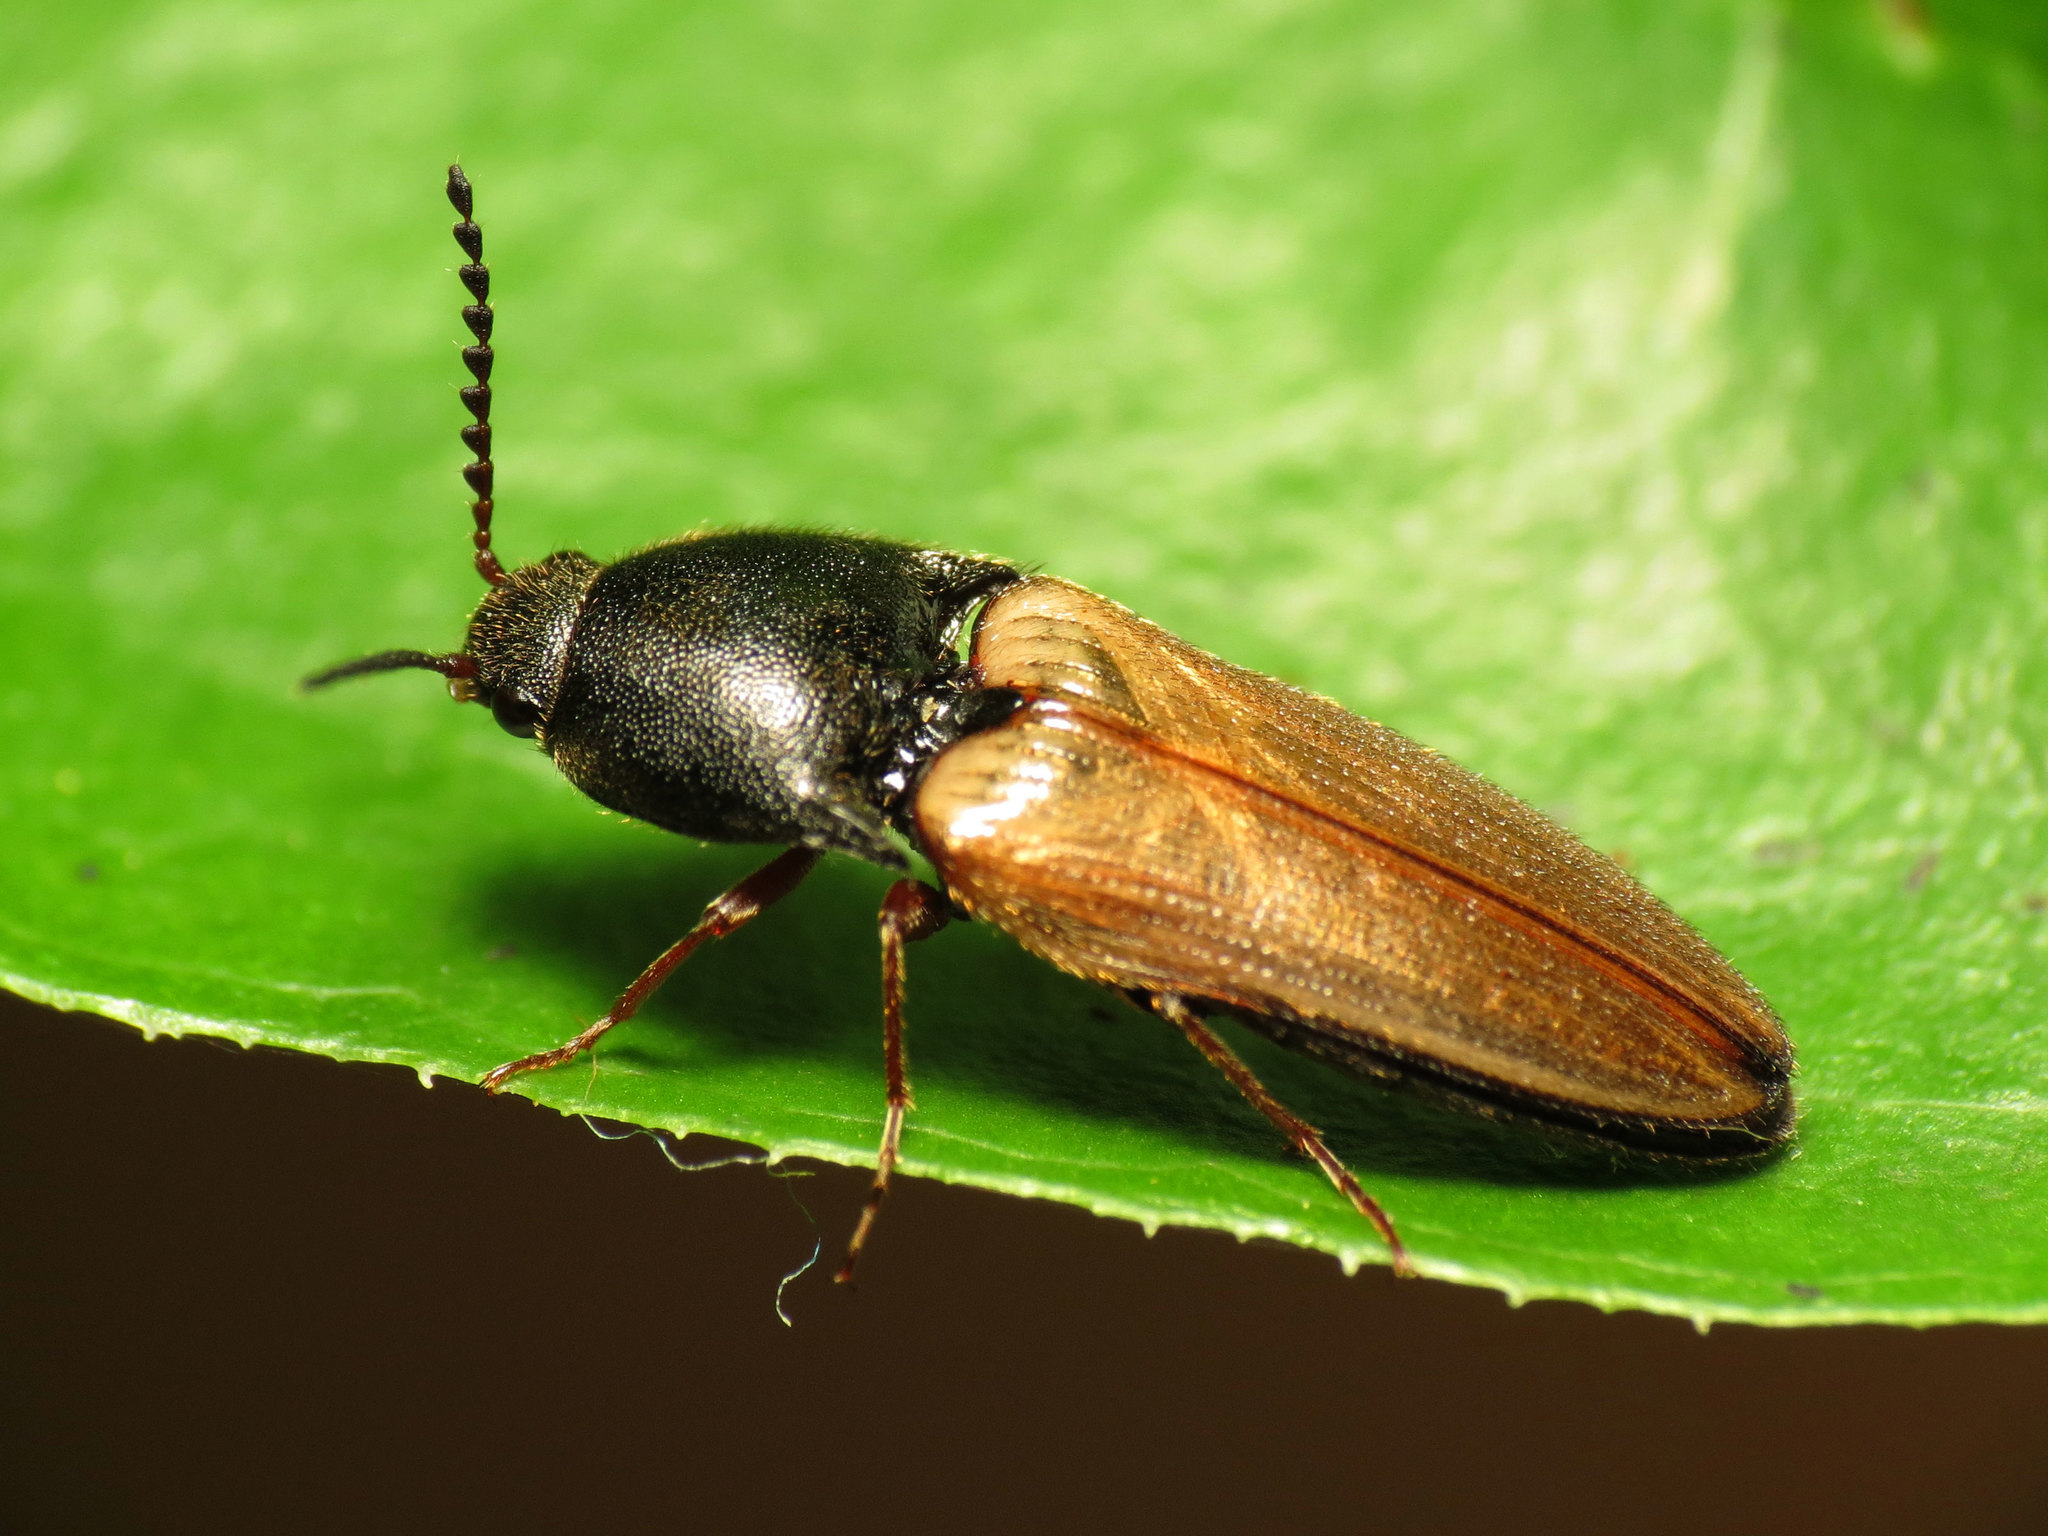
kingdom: Animalia
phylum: Arthropoda
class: Insecta
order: Coleoptera
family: Elateridae
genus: Ampedus
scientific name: Ampedus nigricollis
